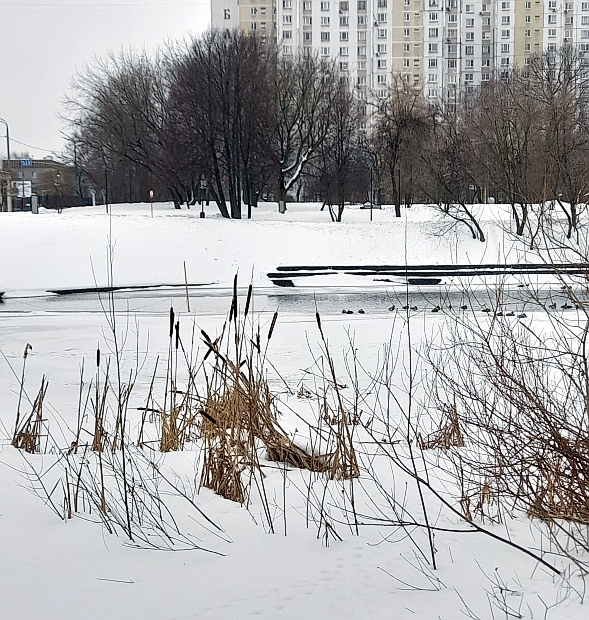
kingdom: Plantae
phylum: Tracheophyta
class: Liliopsida
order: Poales
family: Typhaceae
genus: Typha
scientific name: Typha latifolia
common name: Broadleaf cattail
